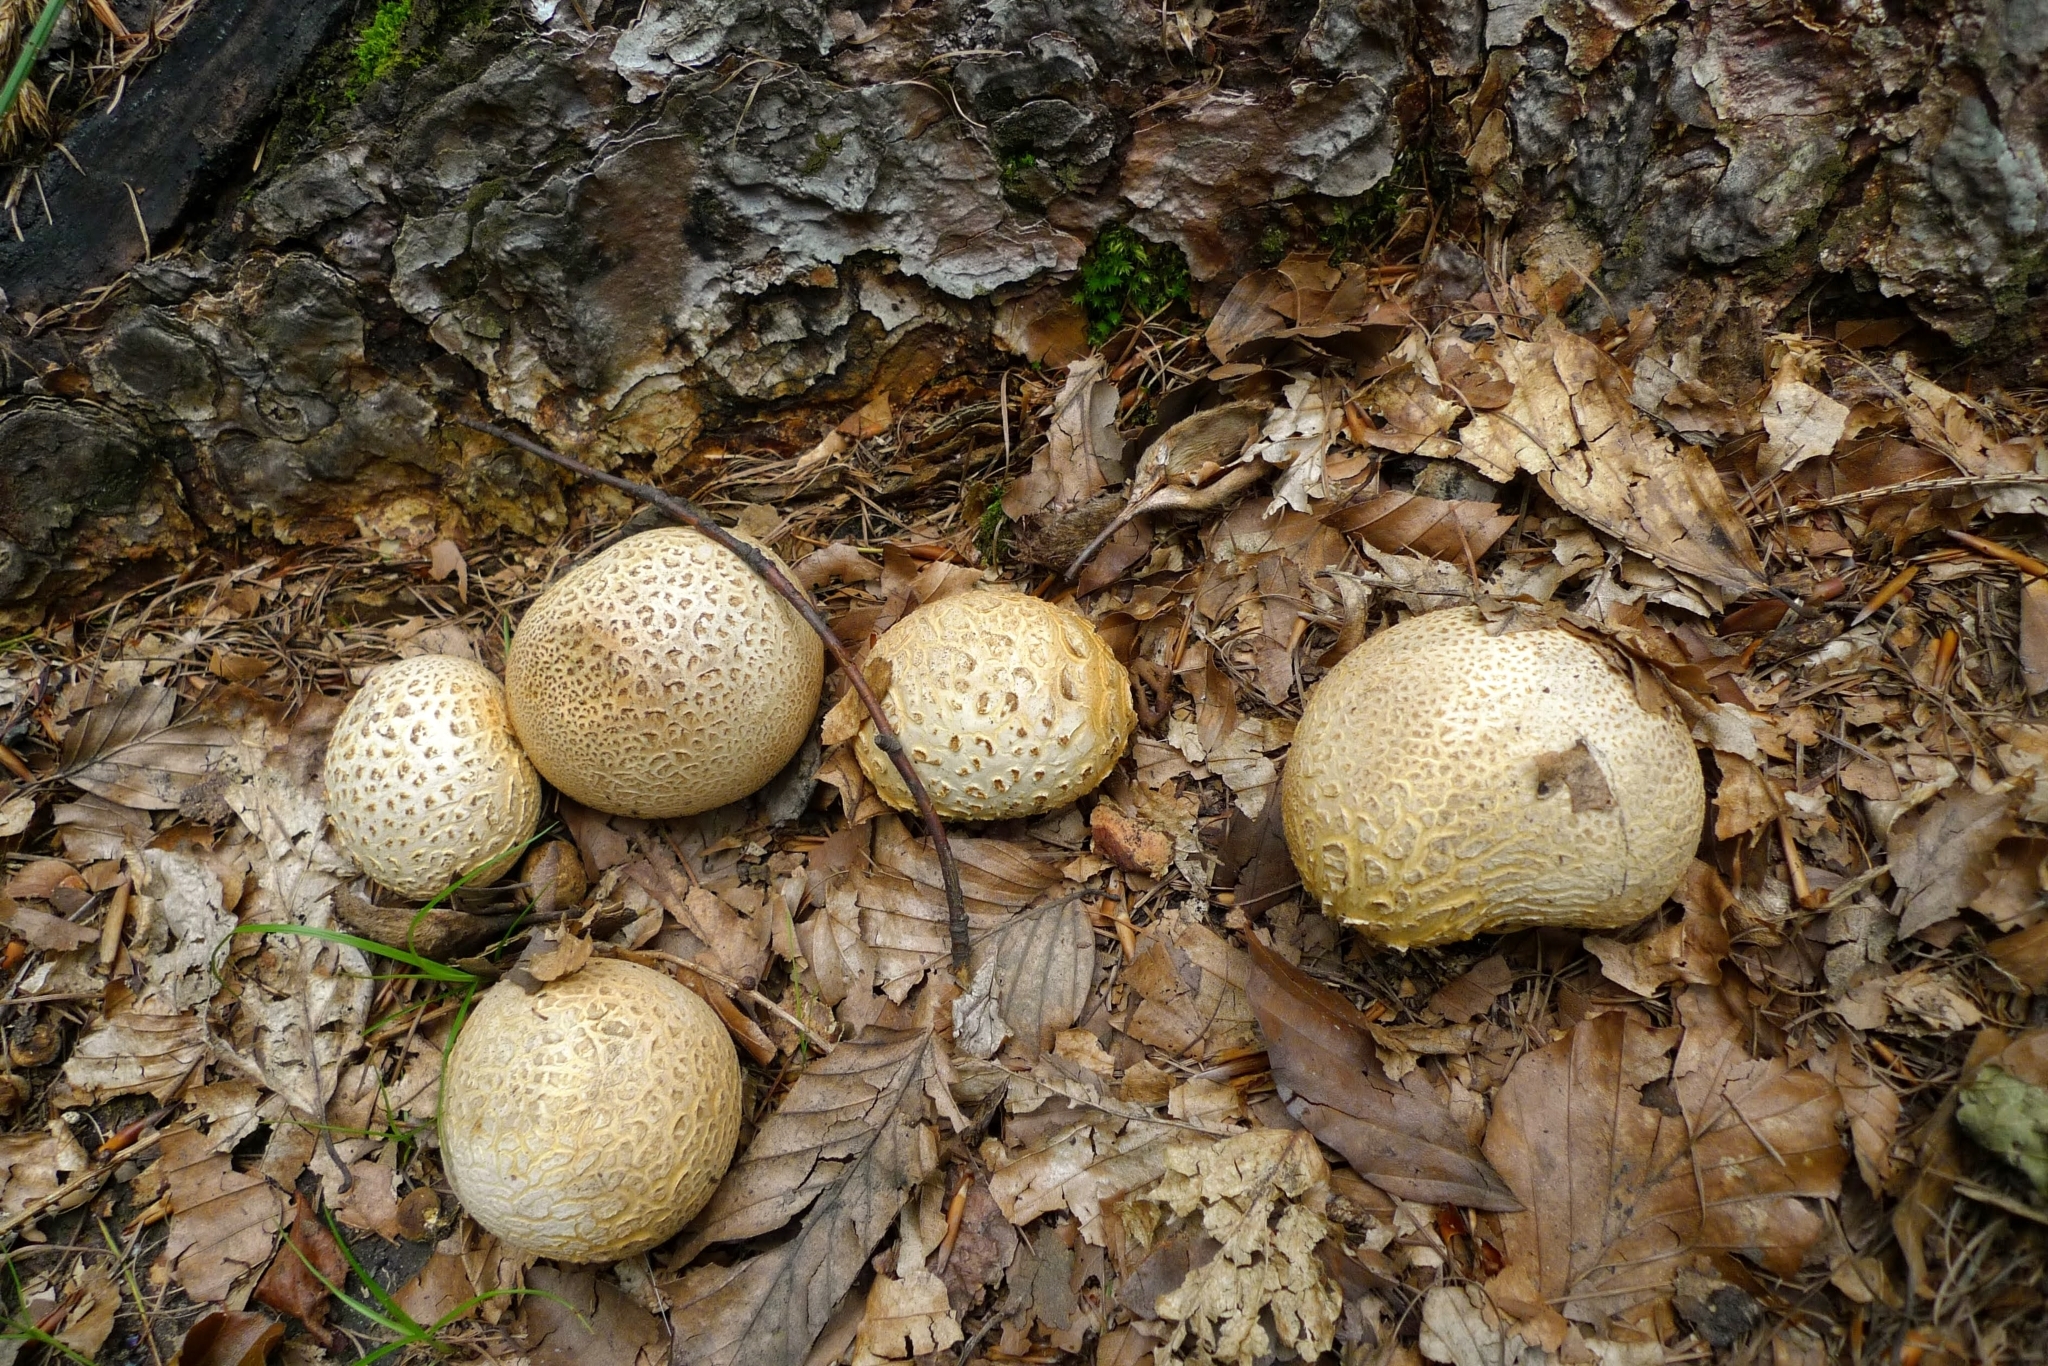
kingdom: Fungi
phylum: Basidiomycota
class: Agaricomycetes
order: Boletales
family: Sclerodermataceae
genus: Scleroderma
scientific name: Scleroderma citrinum
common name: Common earthball
